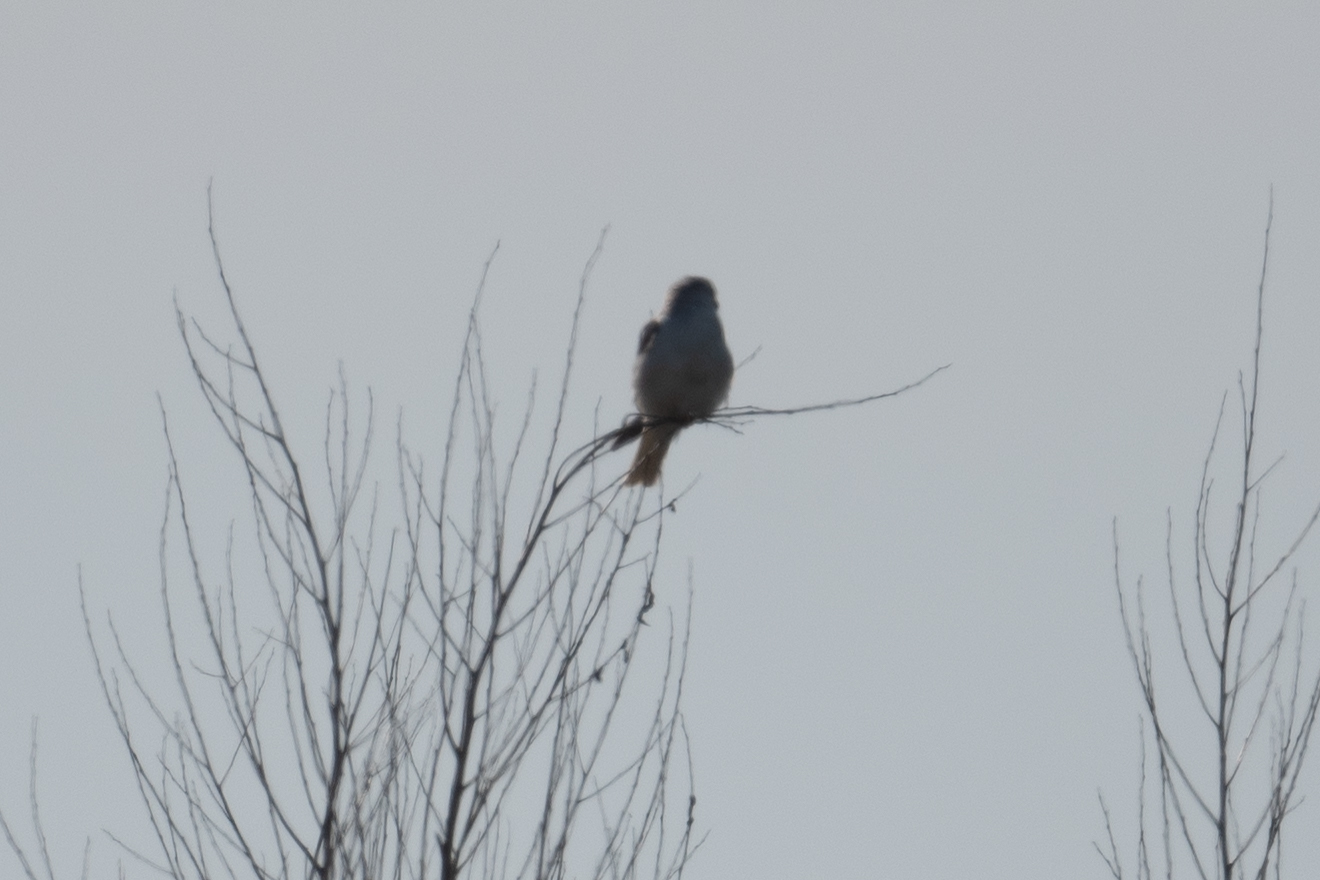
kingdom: Animalia
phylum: Chordata
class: Aves
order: Accipitriformes
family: Accipitridae
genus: Elanus
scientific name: Elanus leucurus
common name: White-tailed kite
